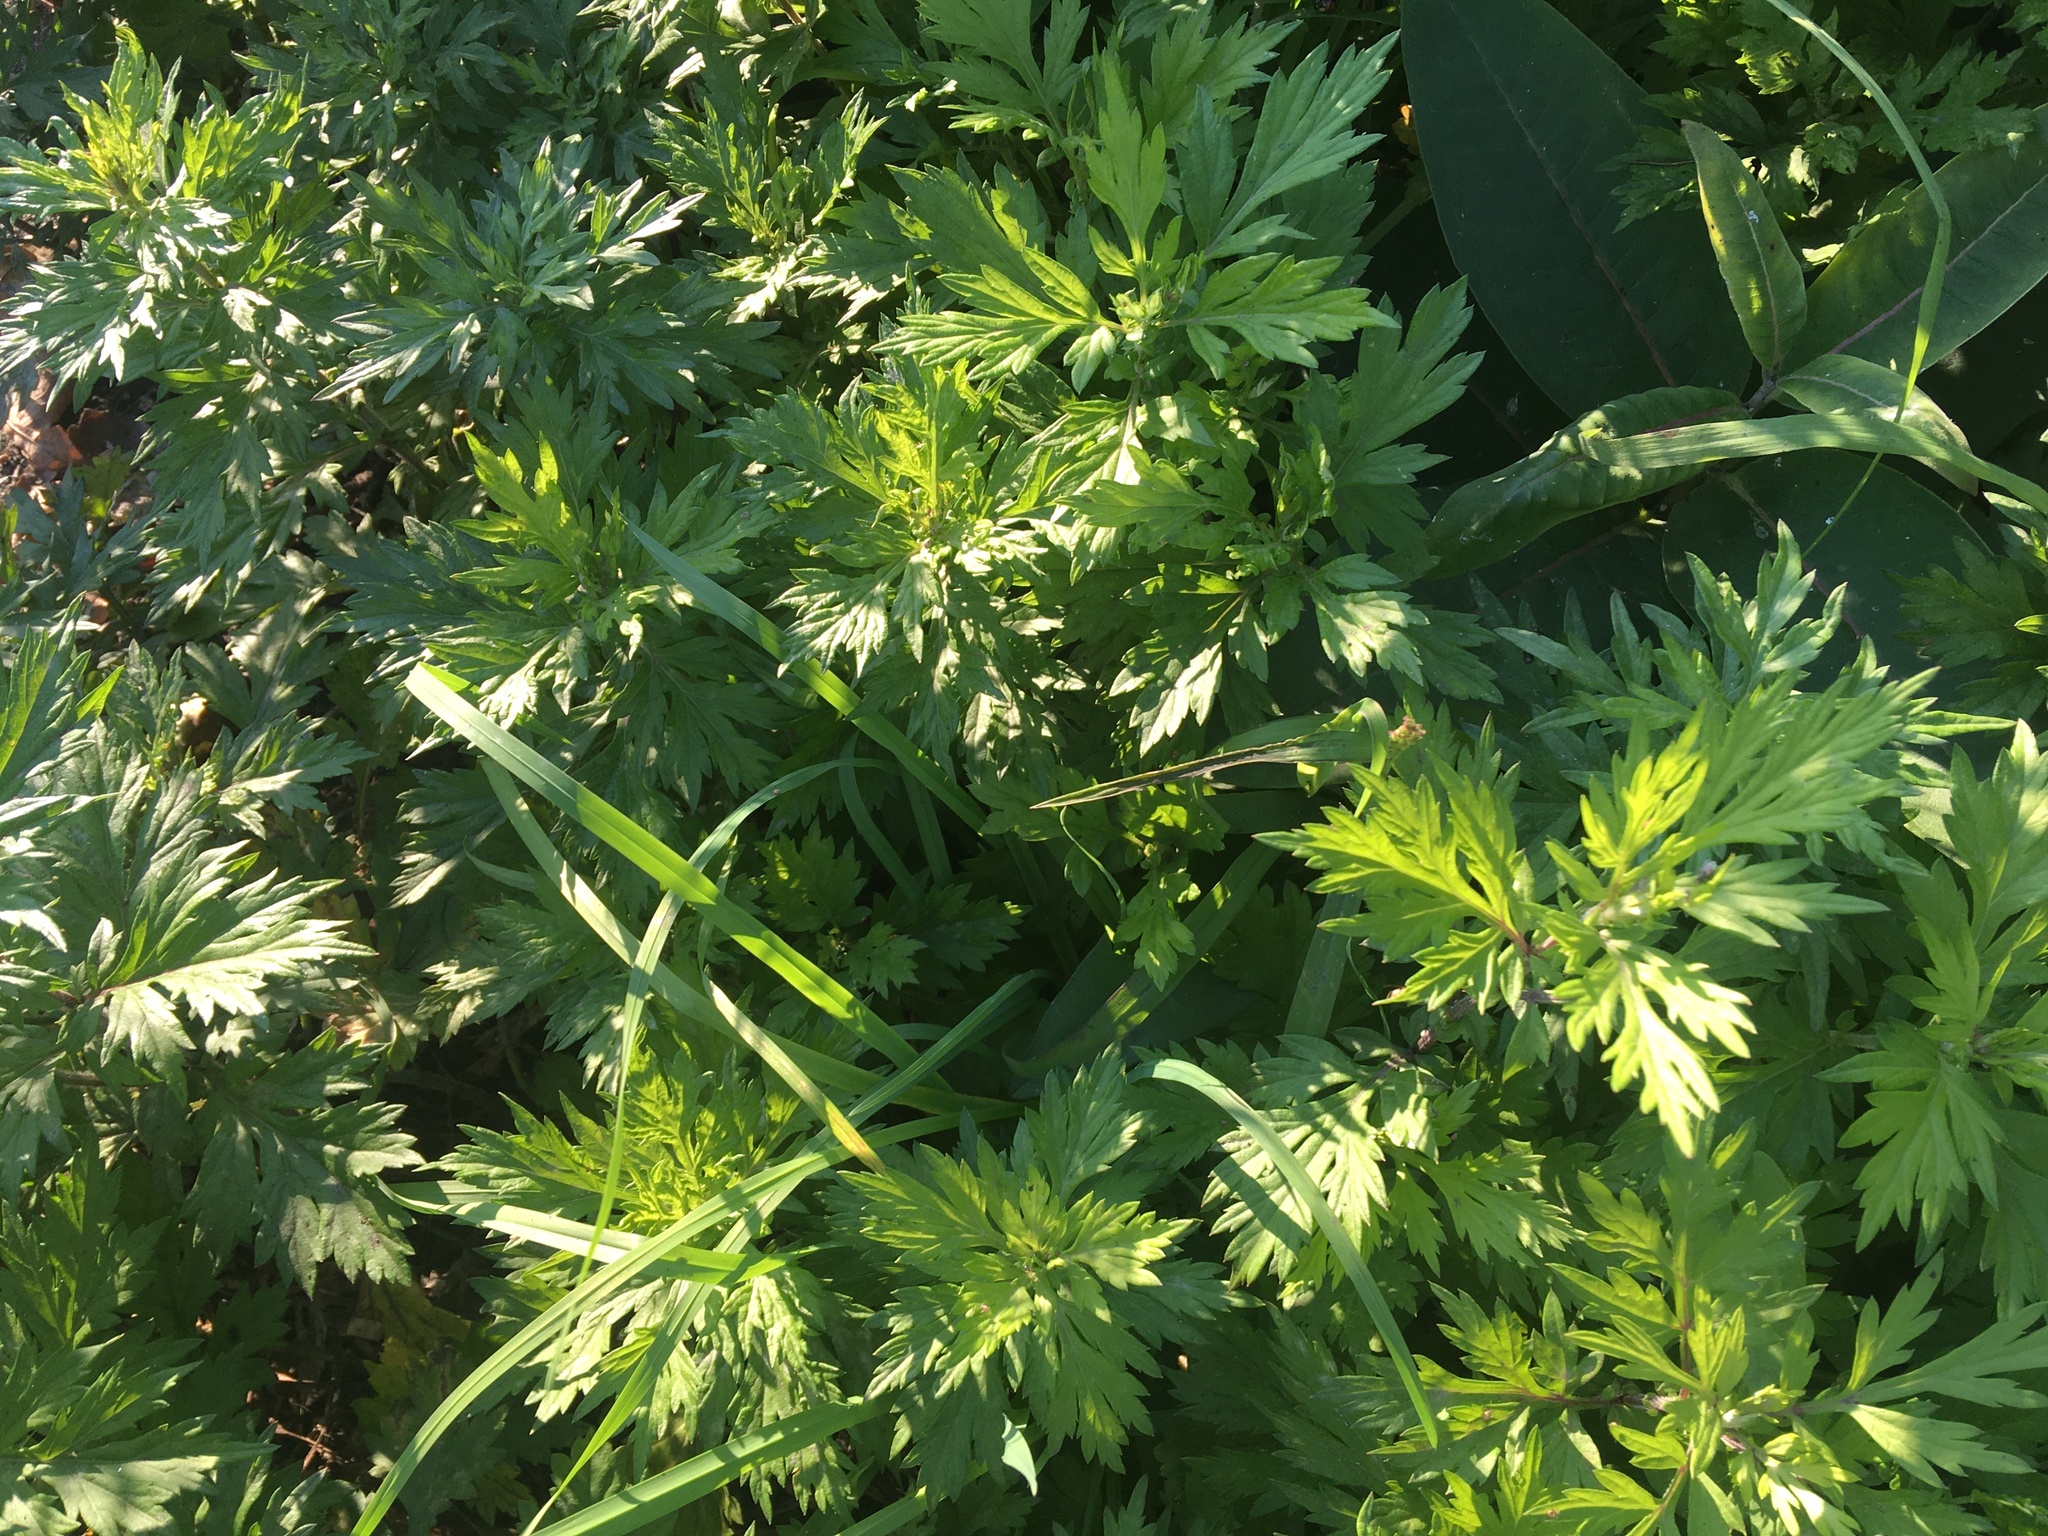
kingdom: Plantae
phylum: Tracheophyta
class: Magnoliopsida
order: Asterales
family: Asteraceae
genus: Artemisia
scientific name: Artemisia vulgaris
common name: Mugwort
